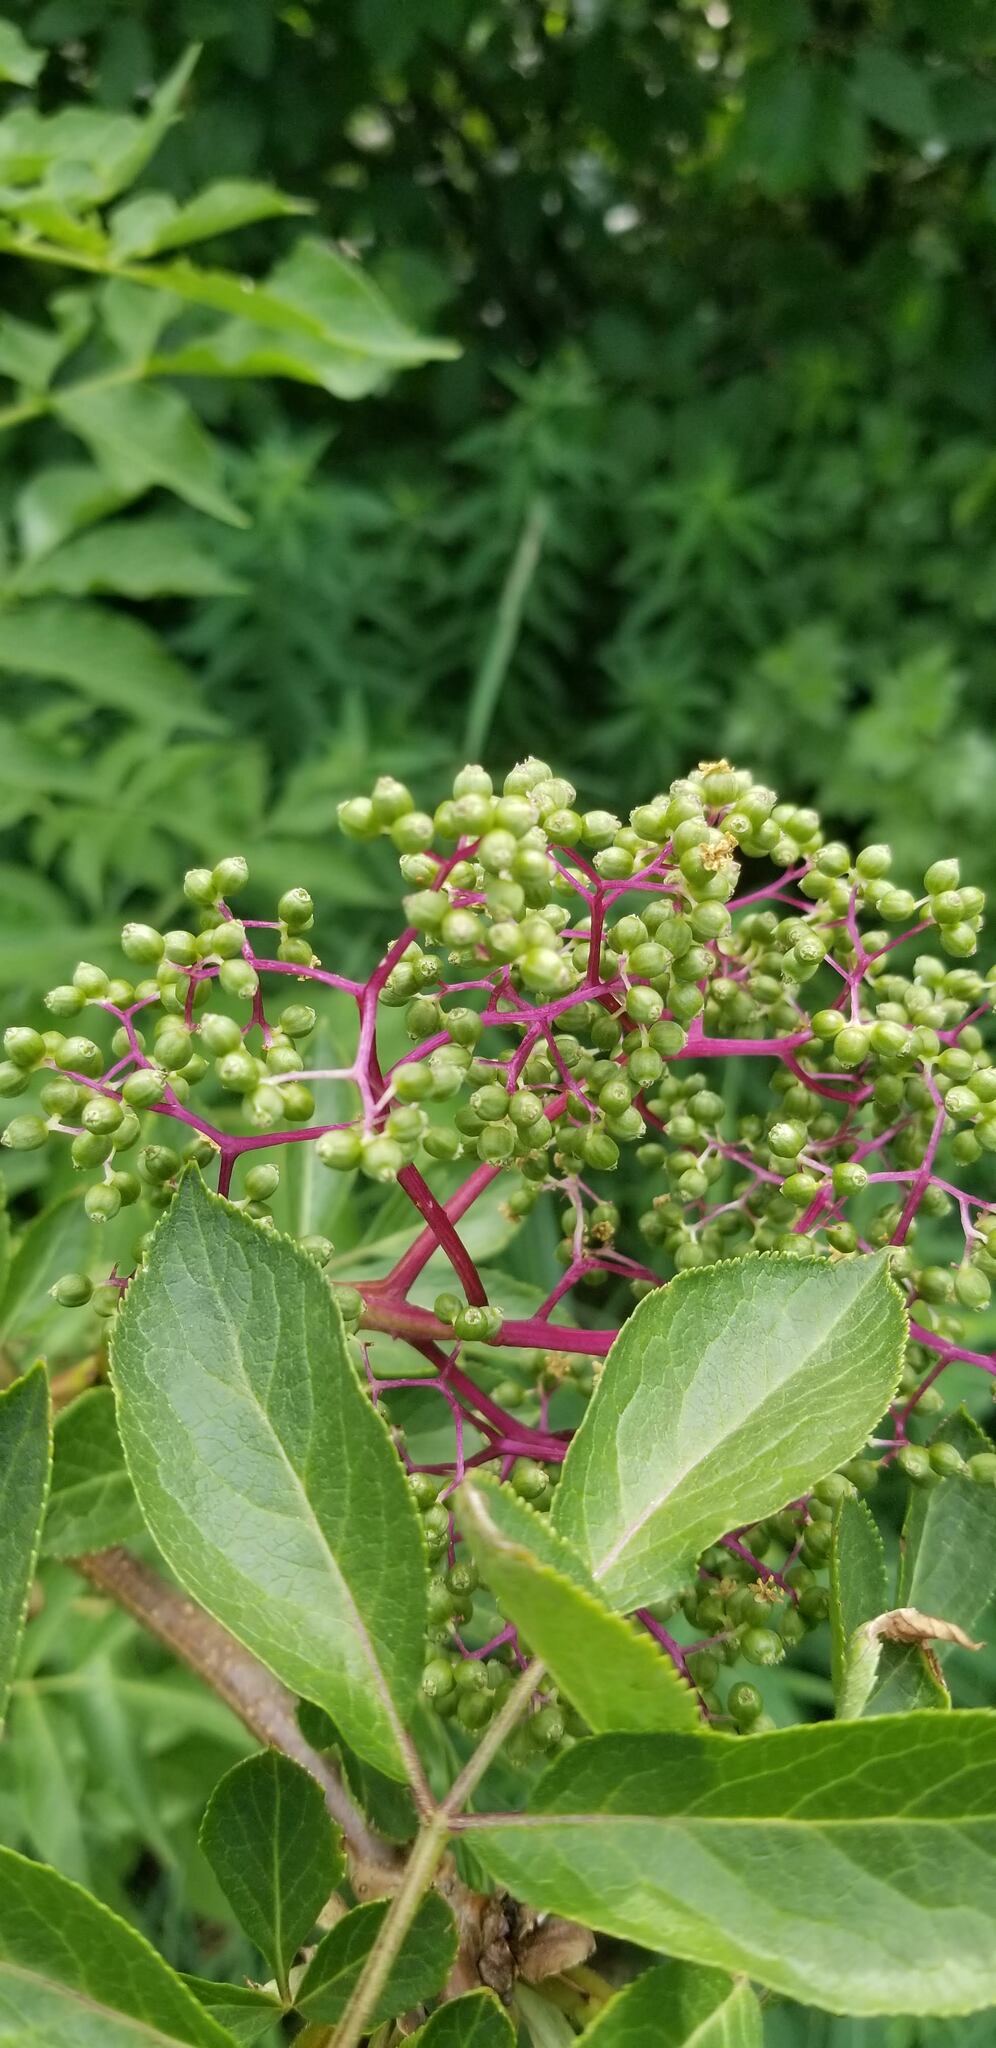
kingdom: Plantae
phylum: Tracheophyta
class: Magnoliopsida
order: Dipsacales
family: Viburnaceae
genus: Sambucus
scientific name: Sambucus racemosa
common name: Red-berried elder
